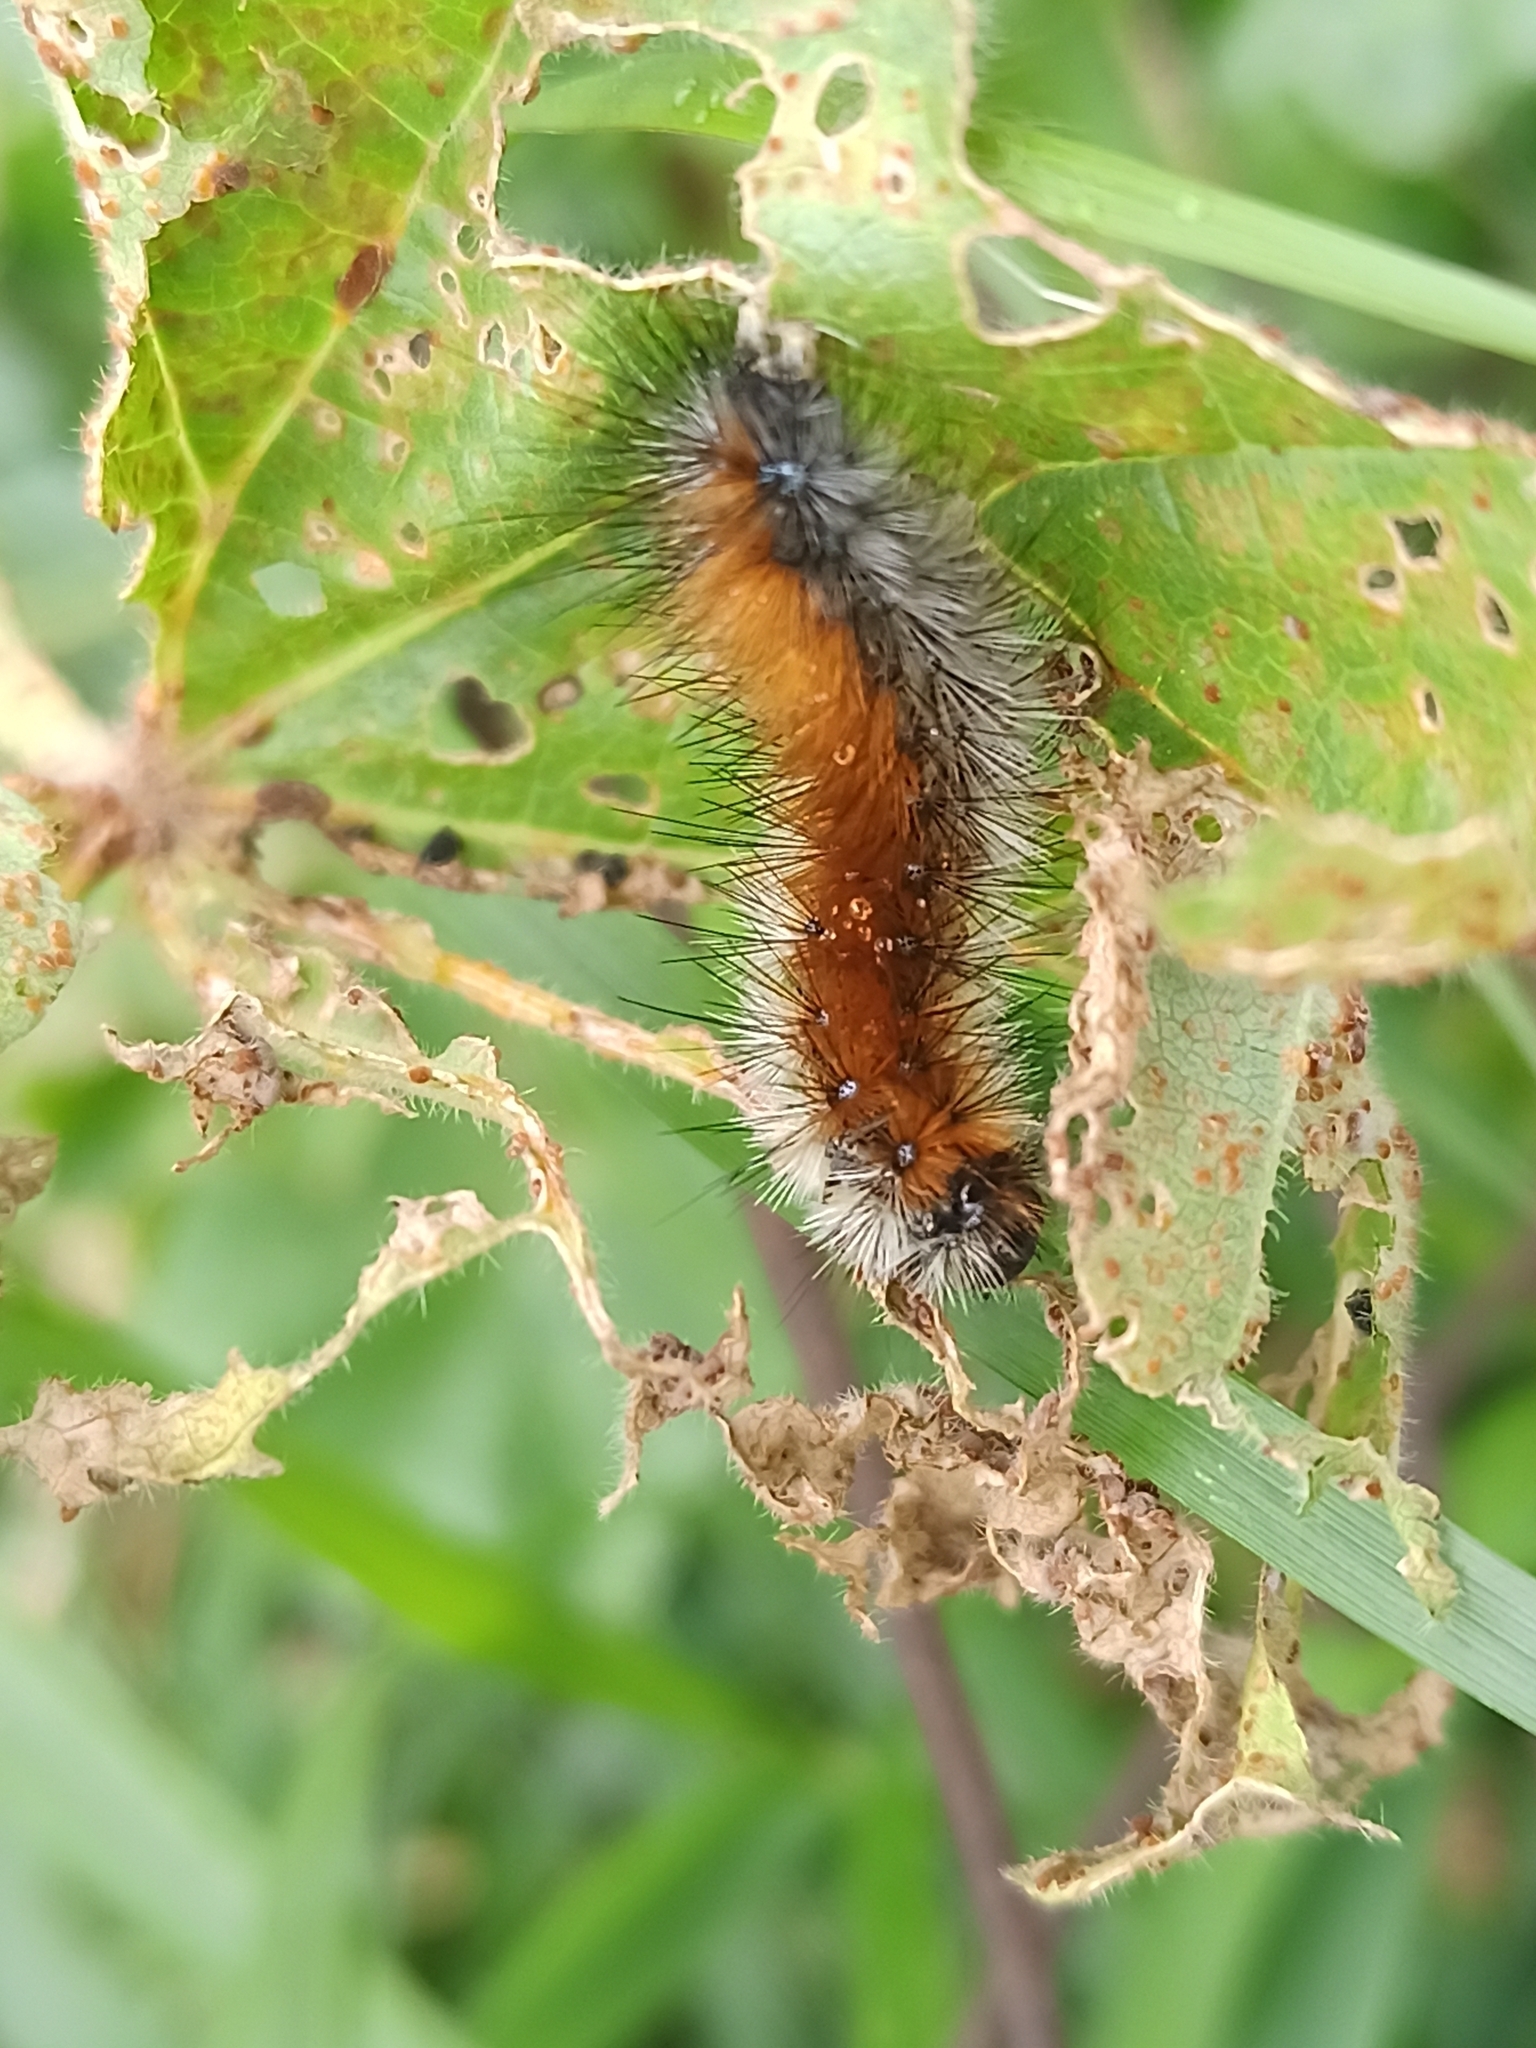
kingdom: Animalia
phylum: Arthropoda
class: Insecta
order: Lepidoptera
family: Erebidae
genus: Ocnogyna
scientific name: Ocnogyna boeticum
